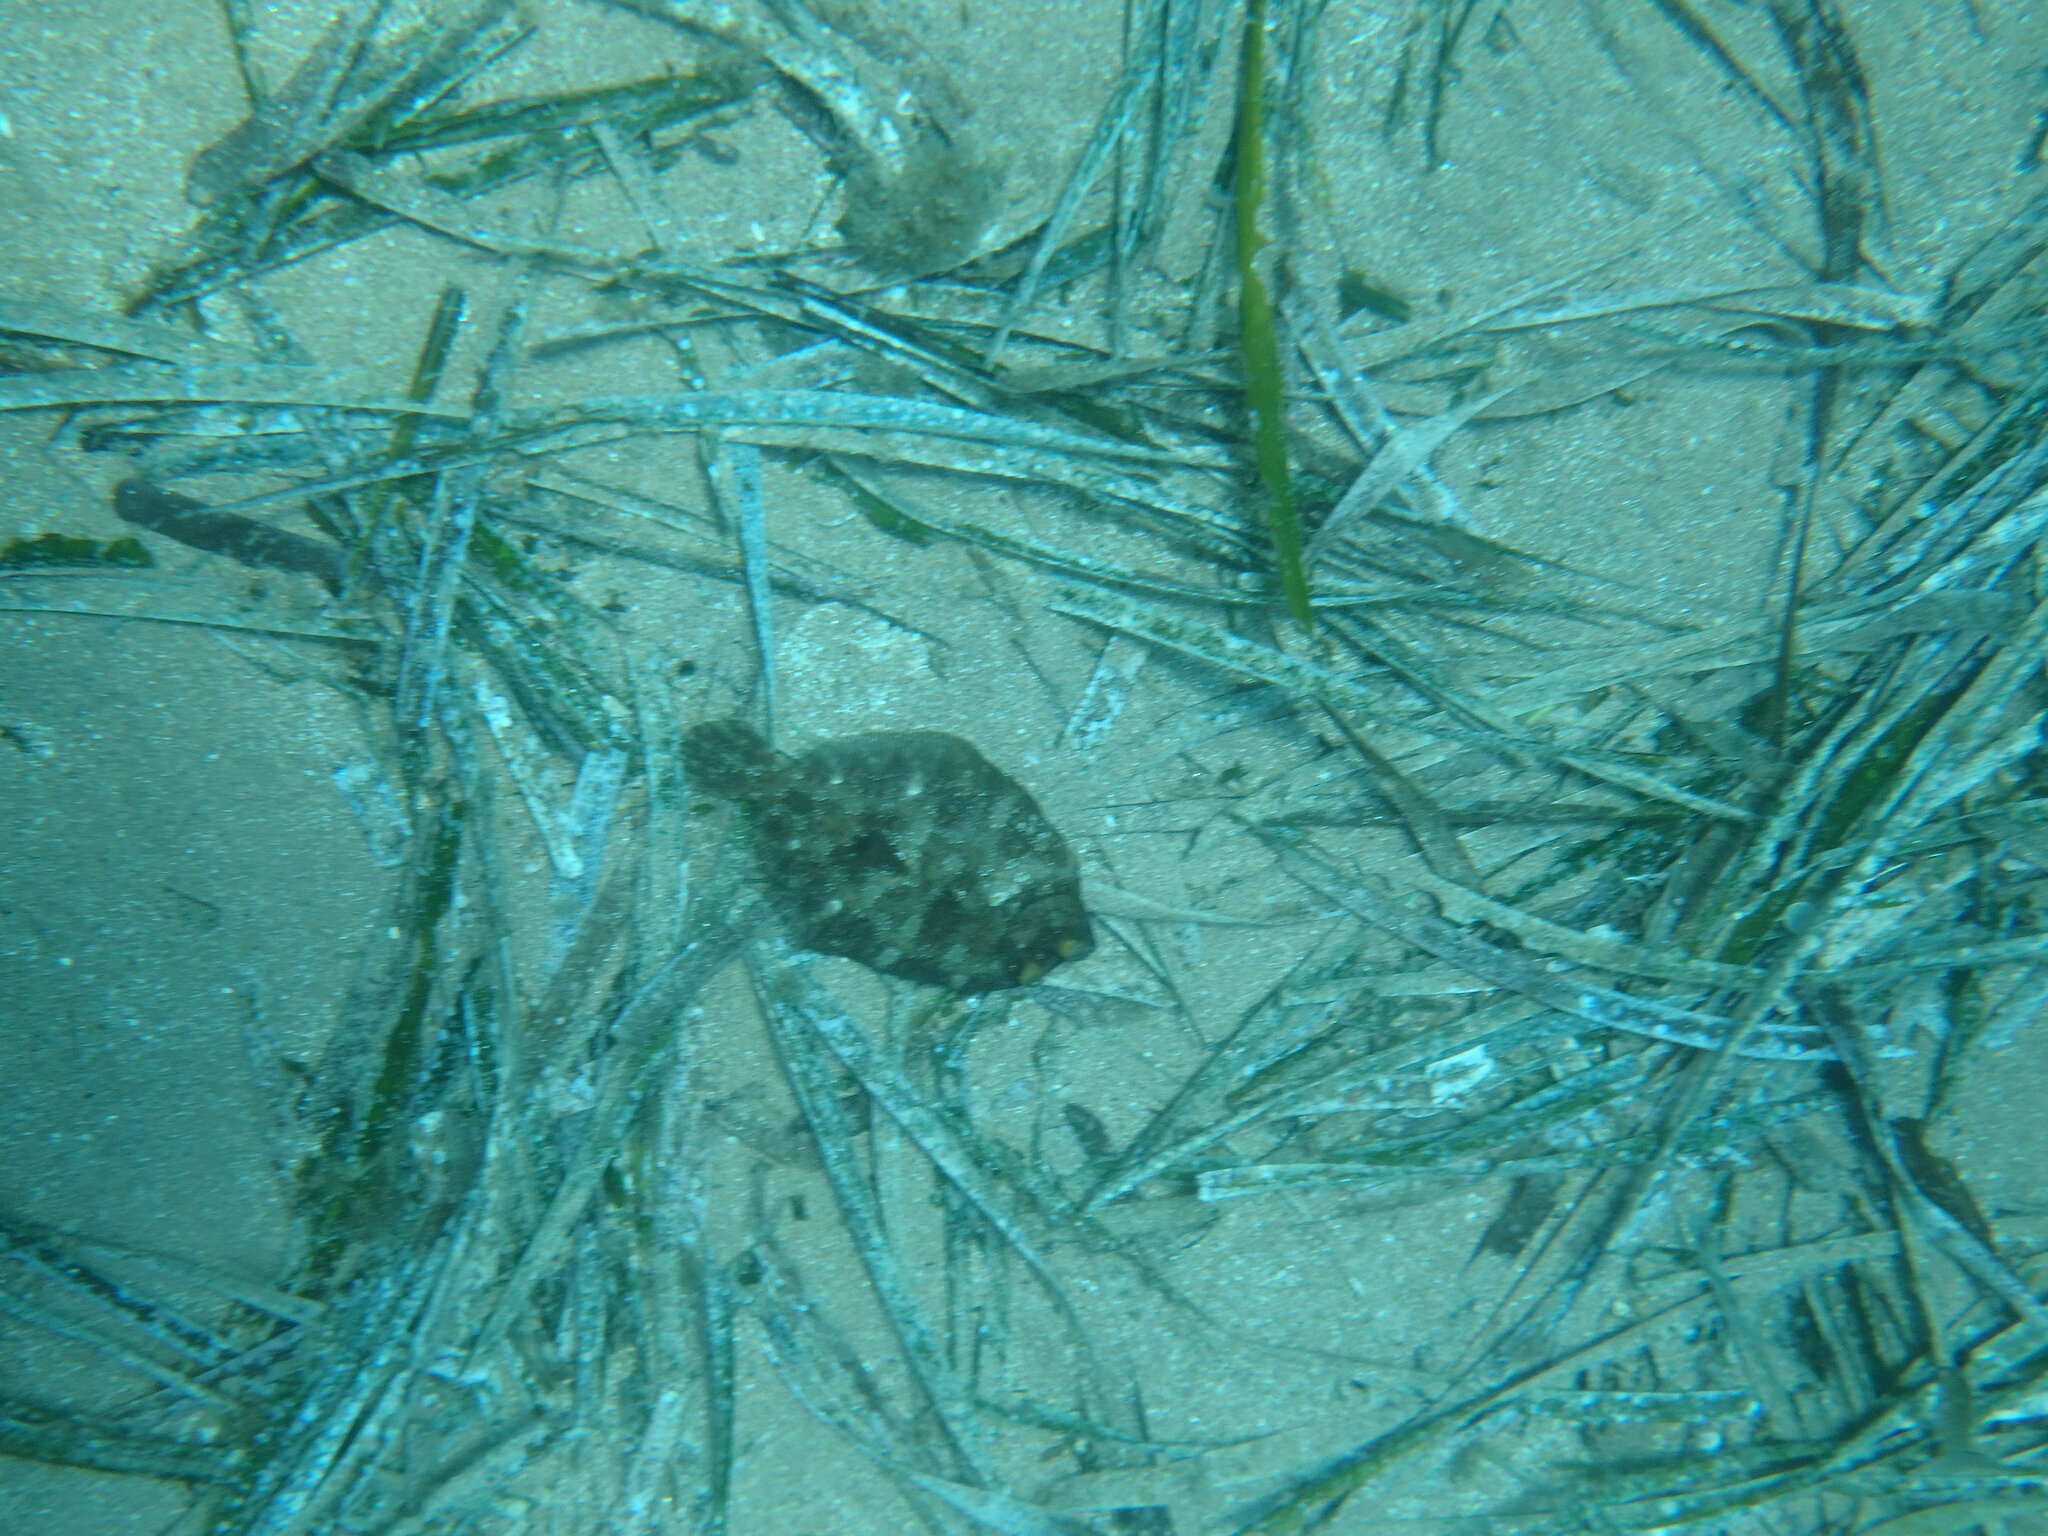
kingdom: Animalia
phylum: Chordata
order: Pleuronectiformes
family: Bothidae
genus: Bothus
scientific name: Bothus podas
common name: Wide-eyed flounder
